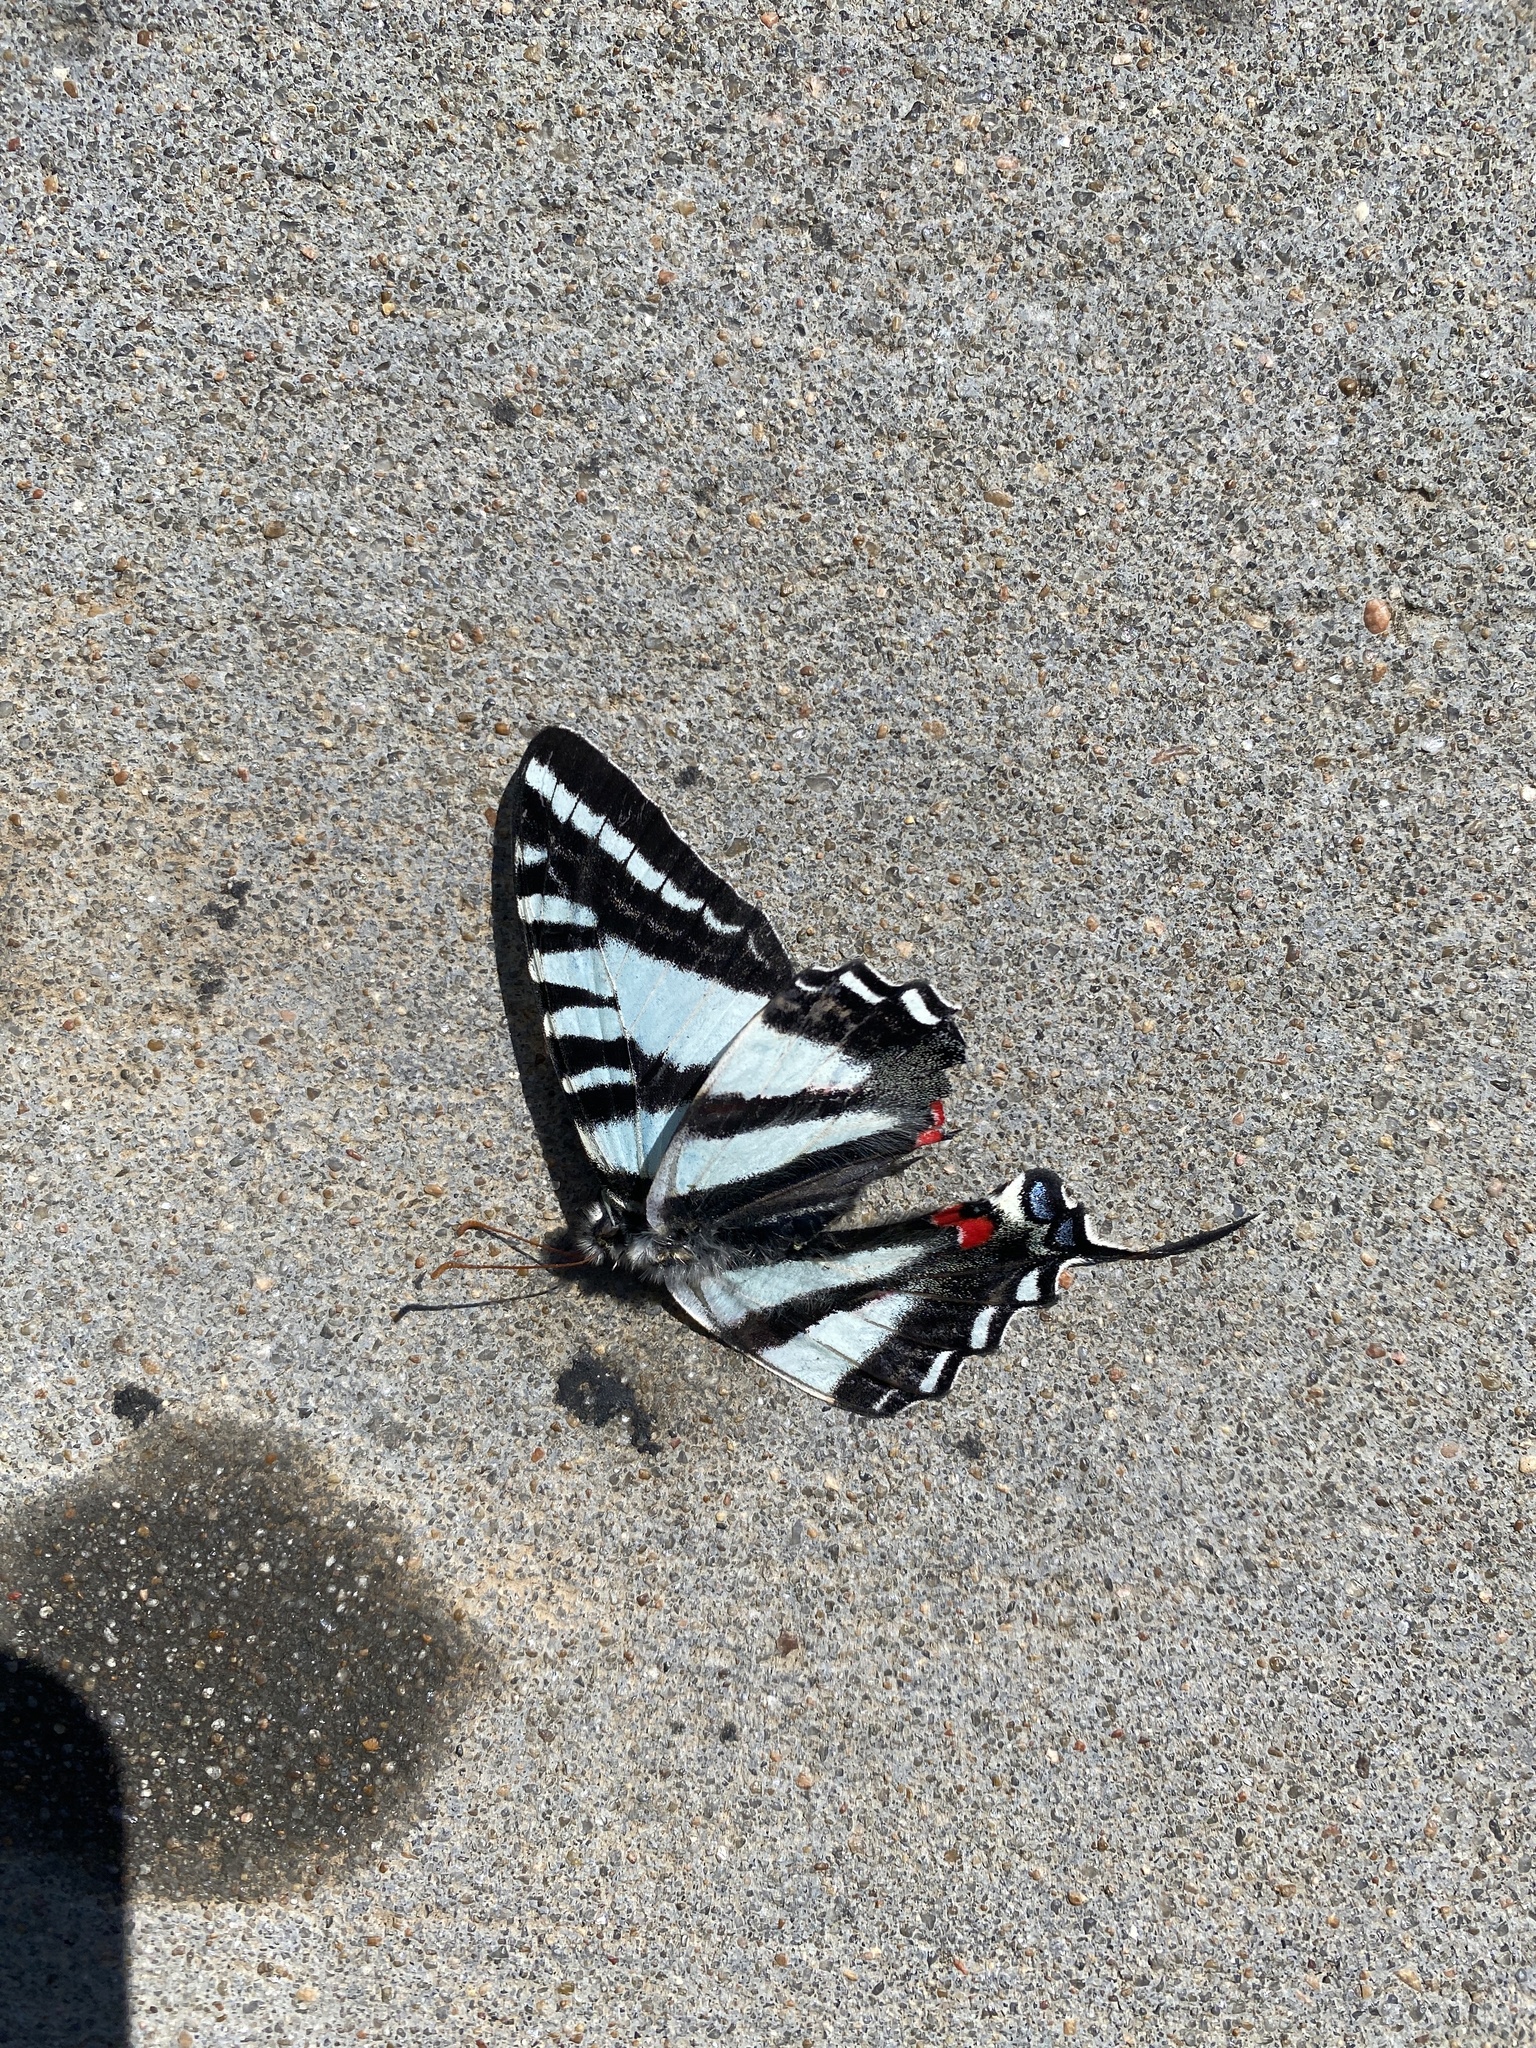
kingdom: Animalia
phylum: Arthropoda
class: Insecta
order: Lepidoptera
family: Papilionidae
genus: Protographium
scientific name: Protographium marcellus
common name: Zebra swallowtail
